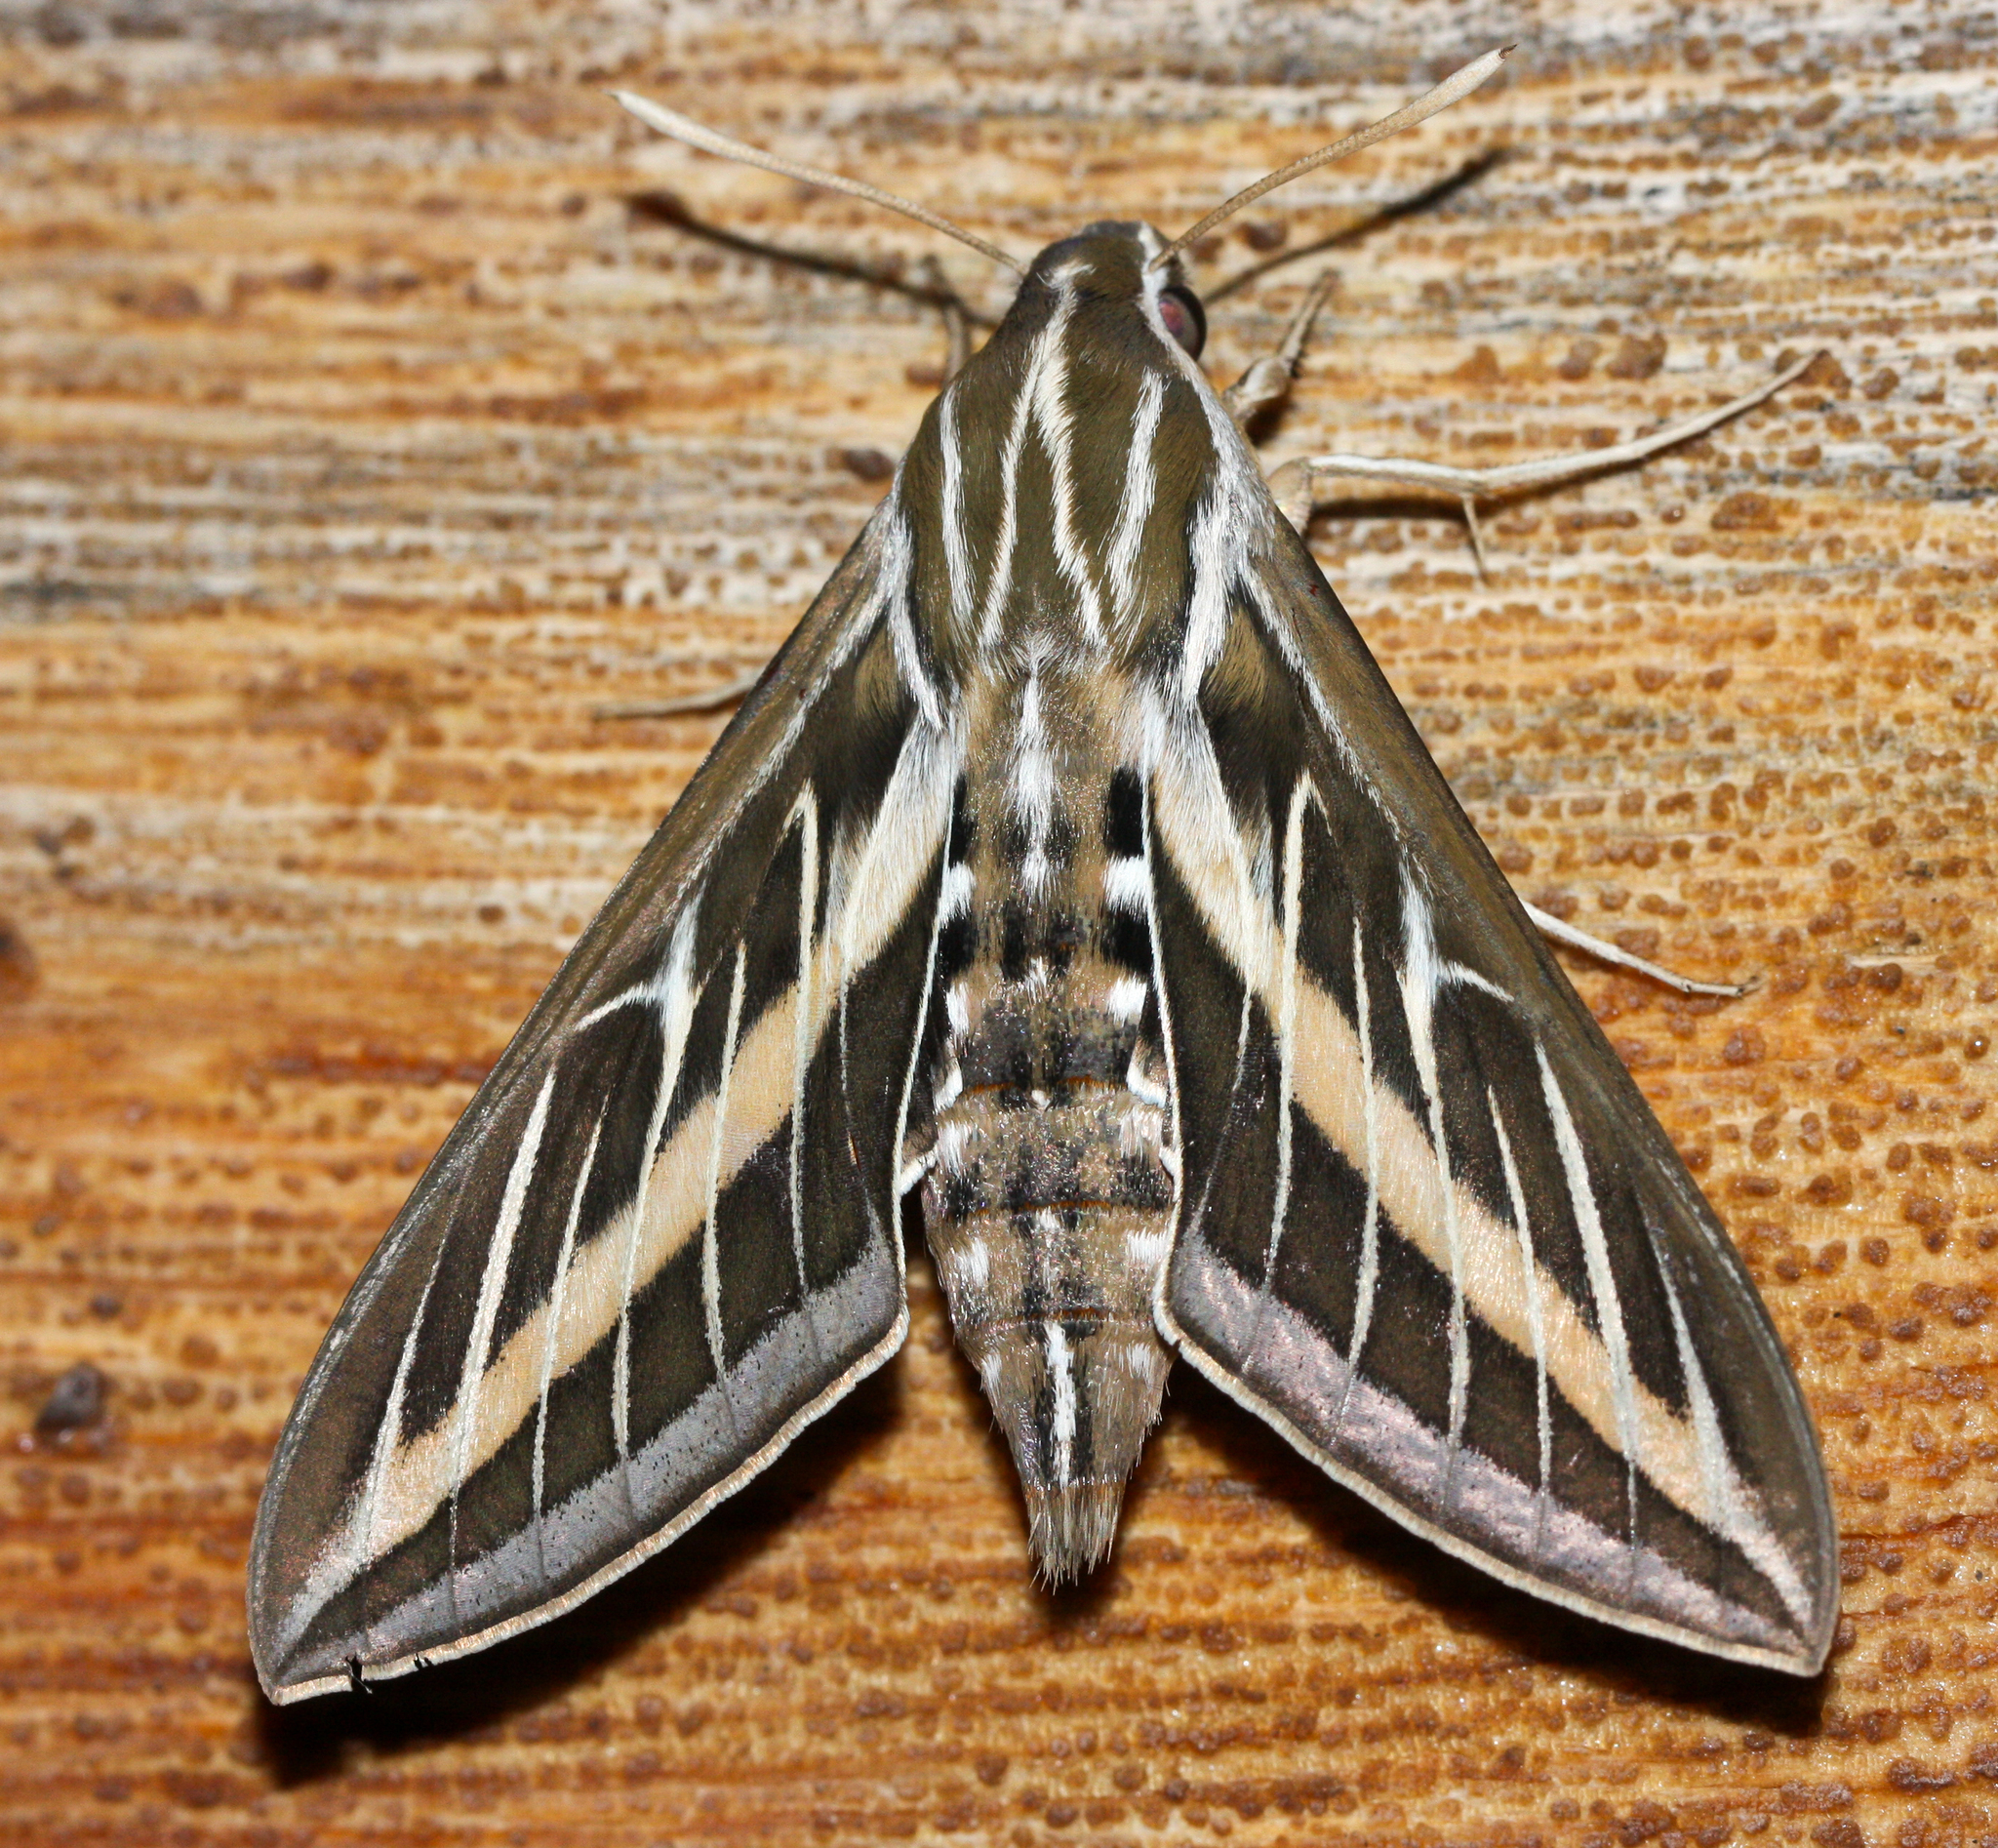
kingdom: Animalia
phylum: Arthropoda
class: Insecta
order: Lepidoptera
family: Sphingidae
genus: Hyles
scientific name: Hyles lineata
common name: White-lined sphinx
